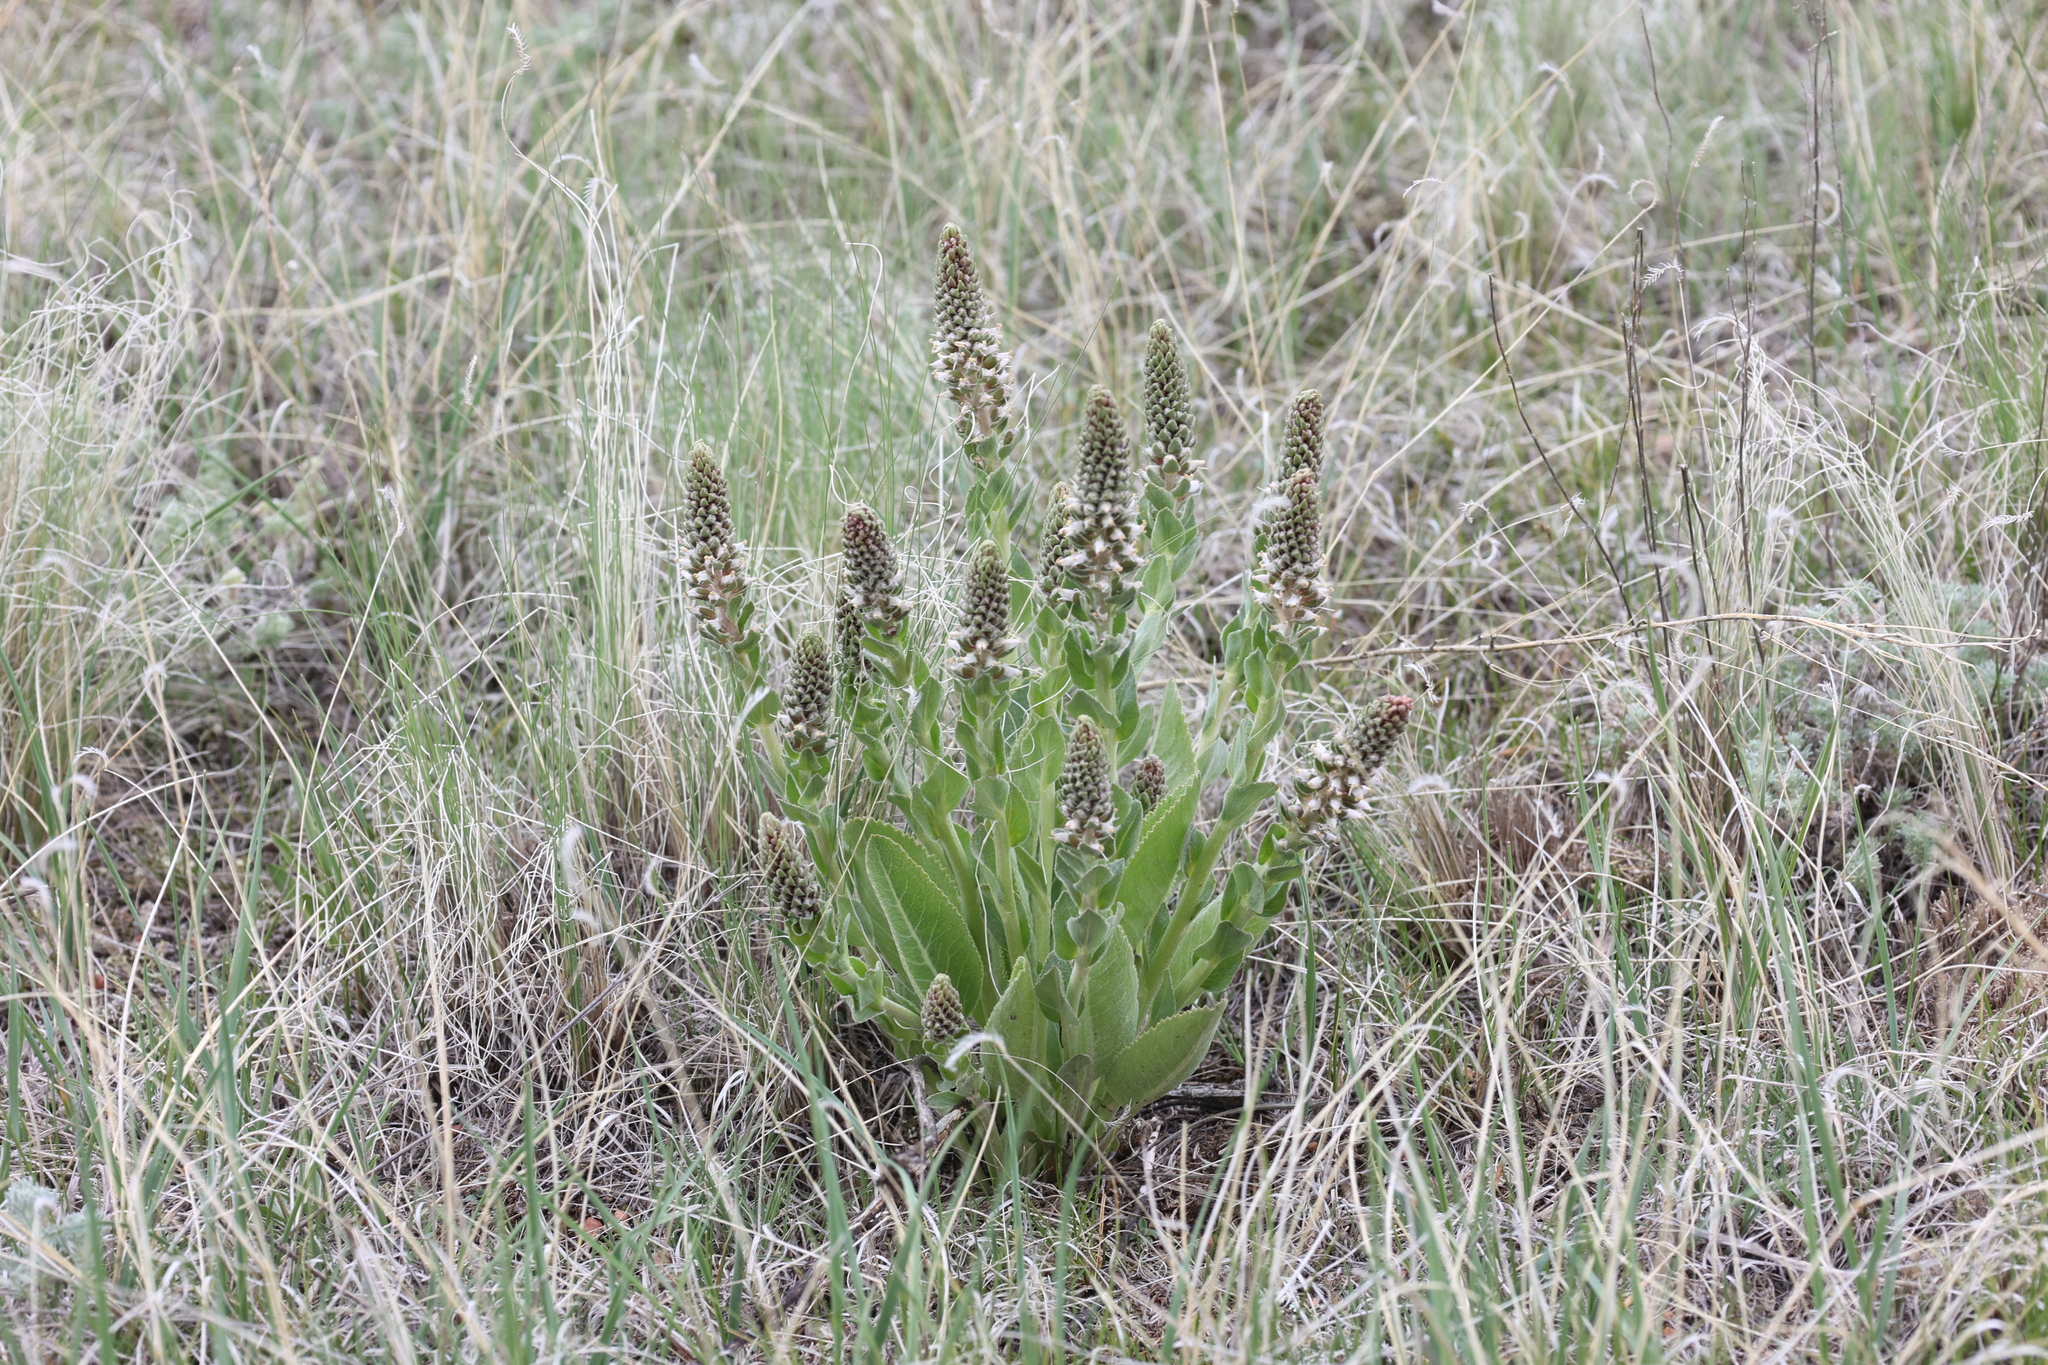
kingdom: Plantae
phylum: Tracheophyta
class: Magnoliopsida
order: Lamiales
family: Plantaginaceae
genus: Veronica
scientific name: Veronica plantaginea
